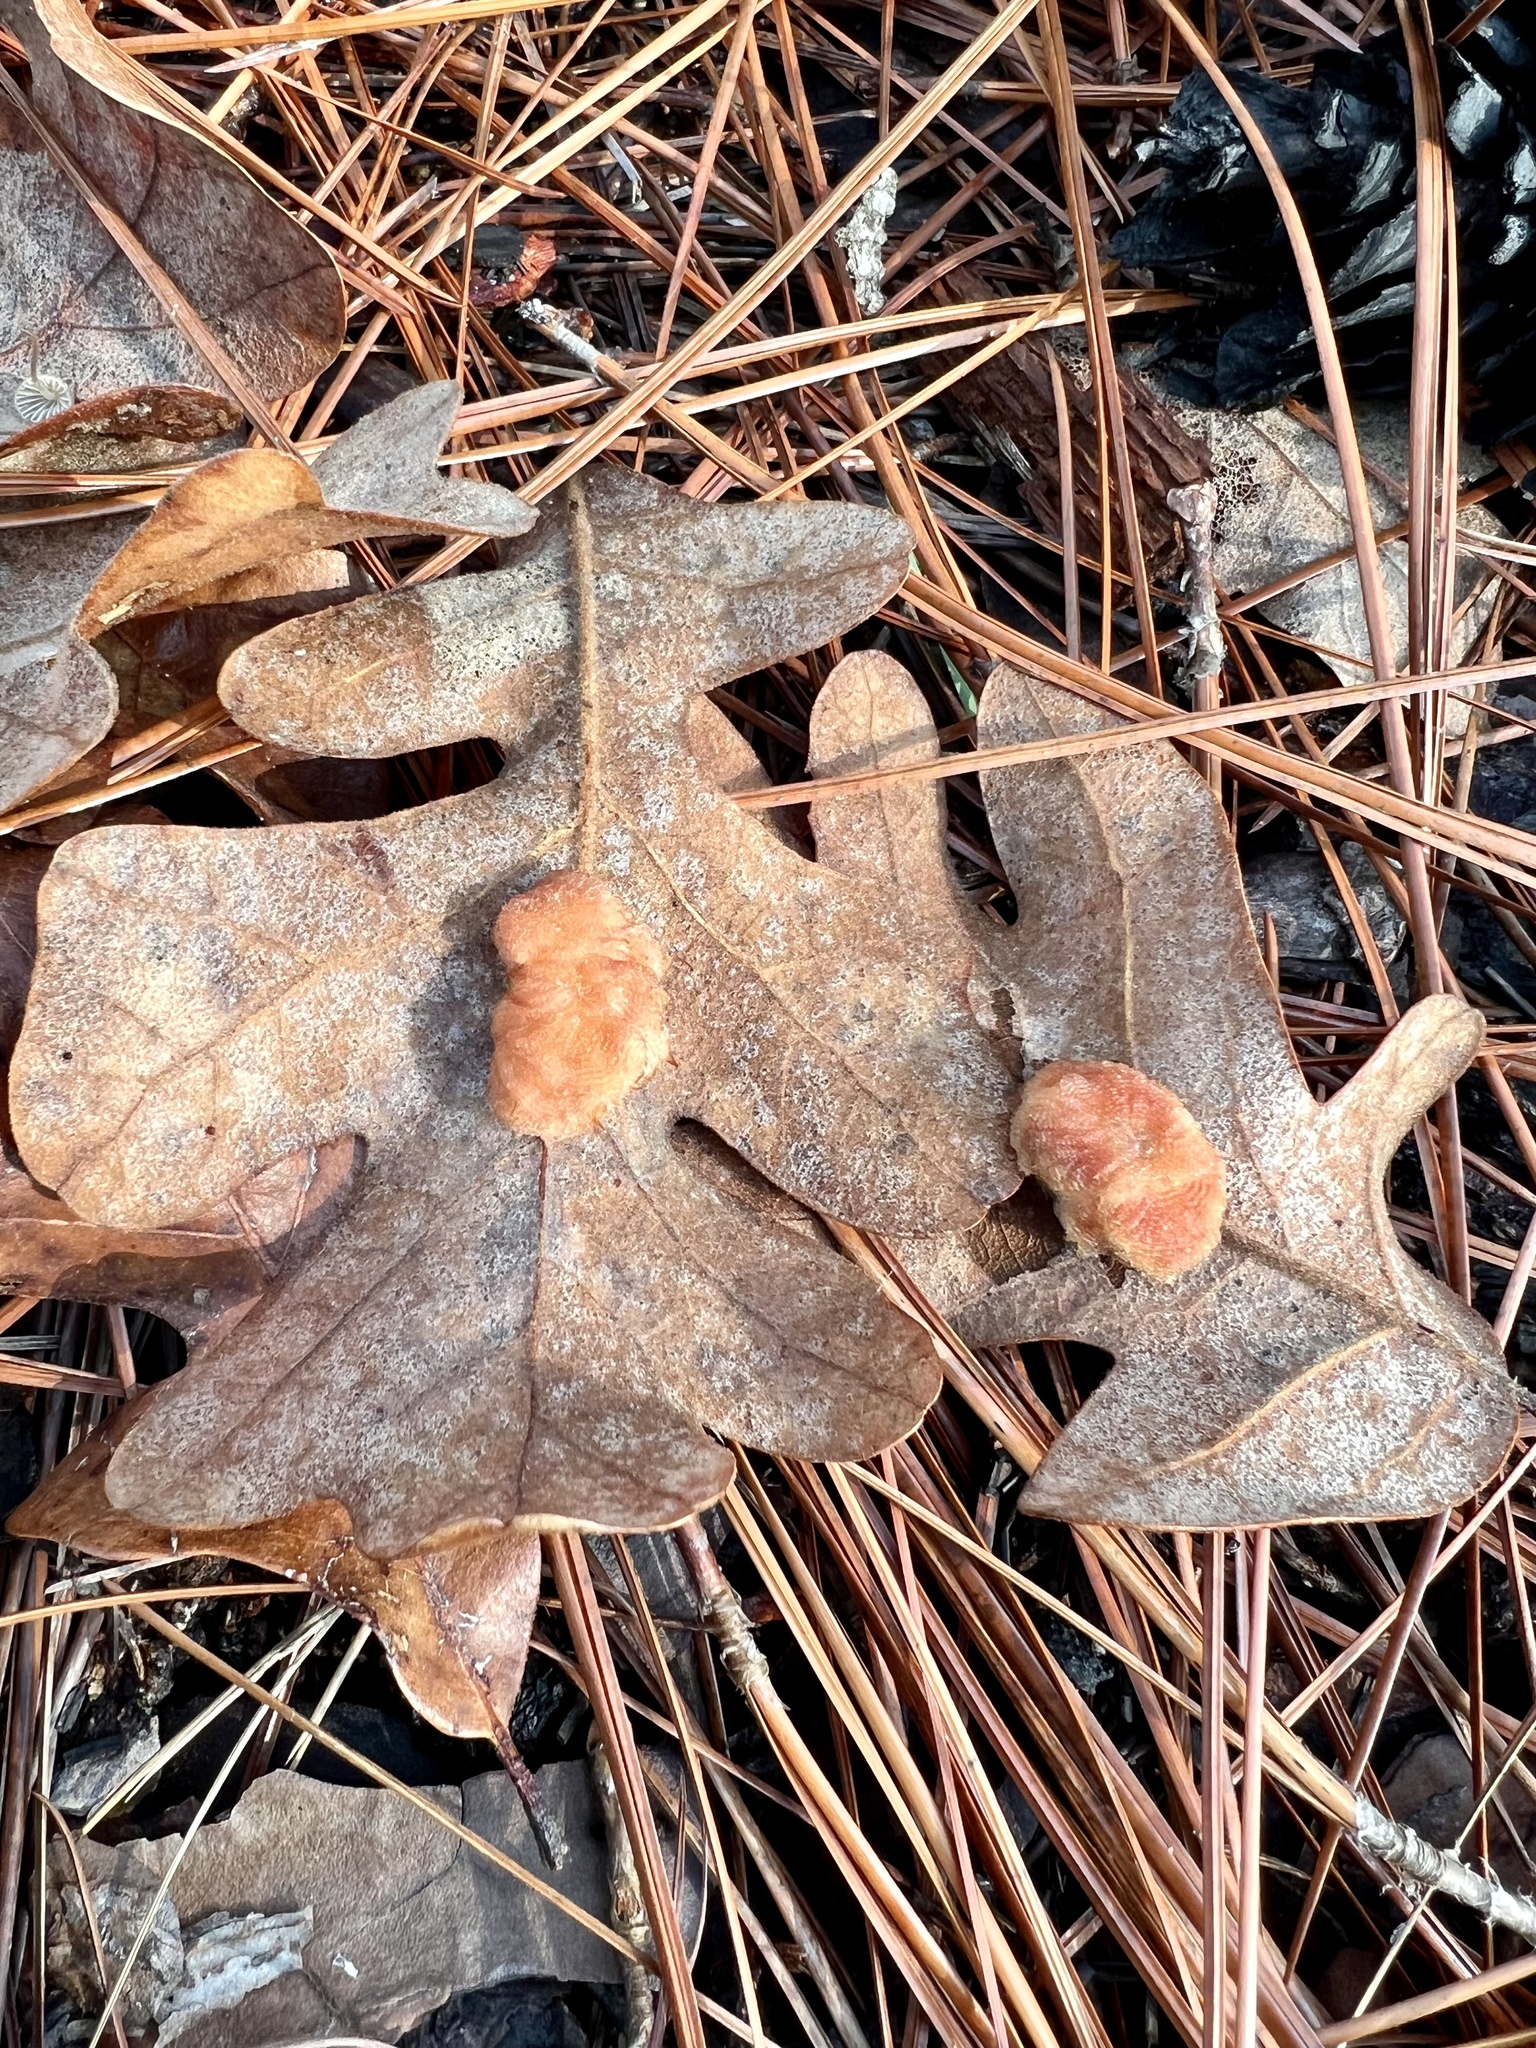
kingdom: Animalia
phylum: Arthropoda
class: Insecta
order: Hymenoptera
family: Cynipidae
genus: Andricus
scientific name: Andricus quercusflocci
